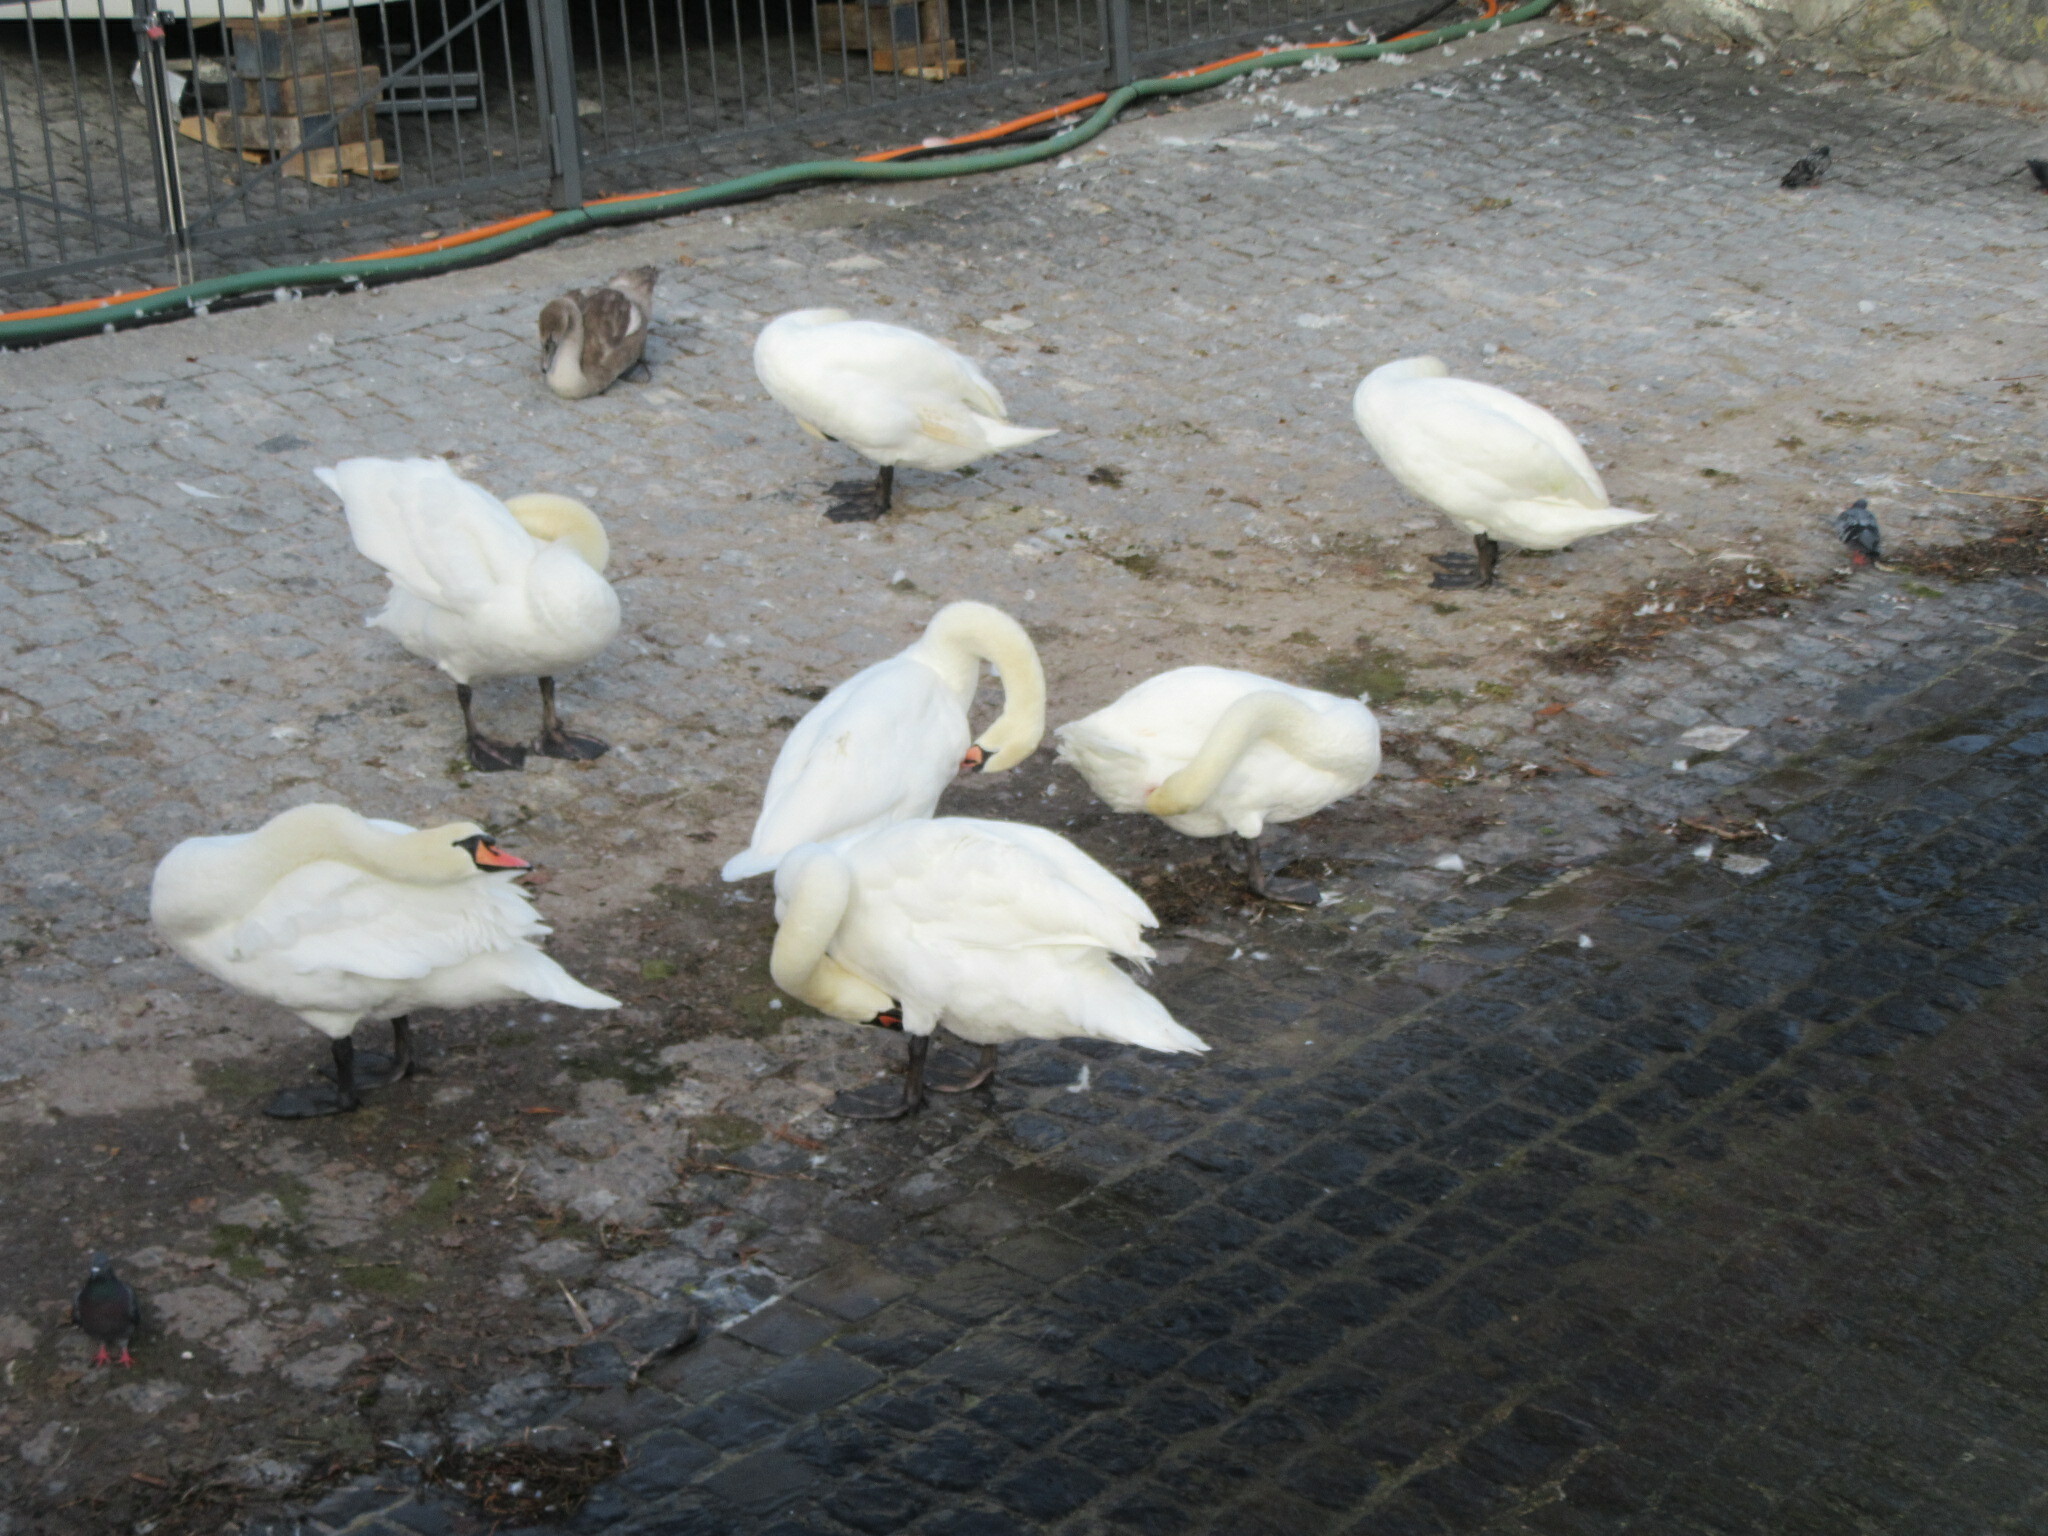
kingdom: Animalia
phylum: Chordata
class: Aves
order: Anseriformes
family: Anatidae
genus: Cygnus
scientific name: Cygnus olor
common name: Mute swan
